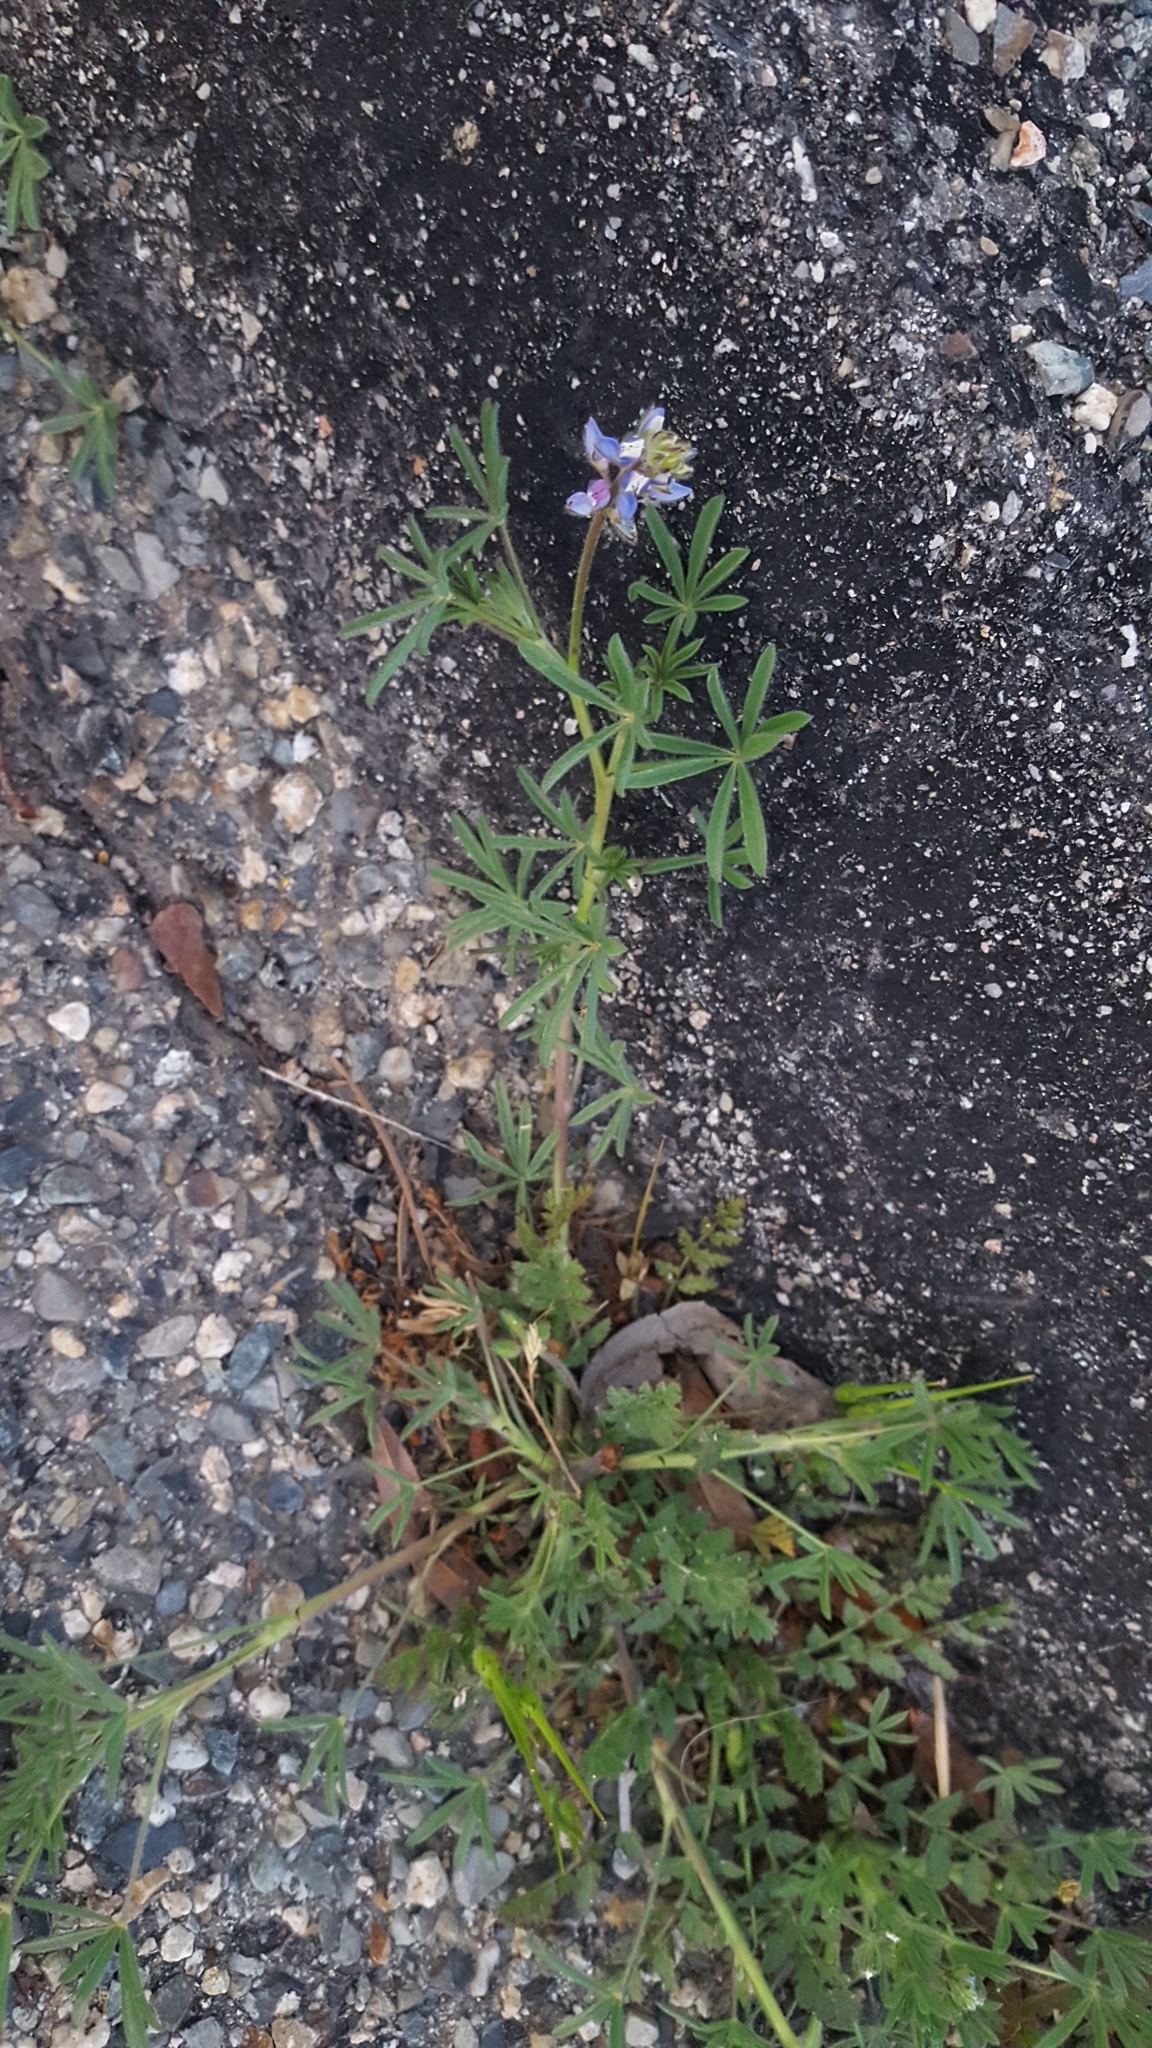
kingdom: Plantae
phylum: Tracheophyta
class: Magnoliopsida
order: Fabales
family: Fabaceae
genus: Lupinus
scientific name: Lupinus bicolor
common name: Miniature lupine
